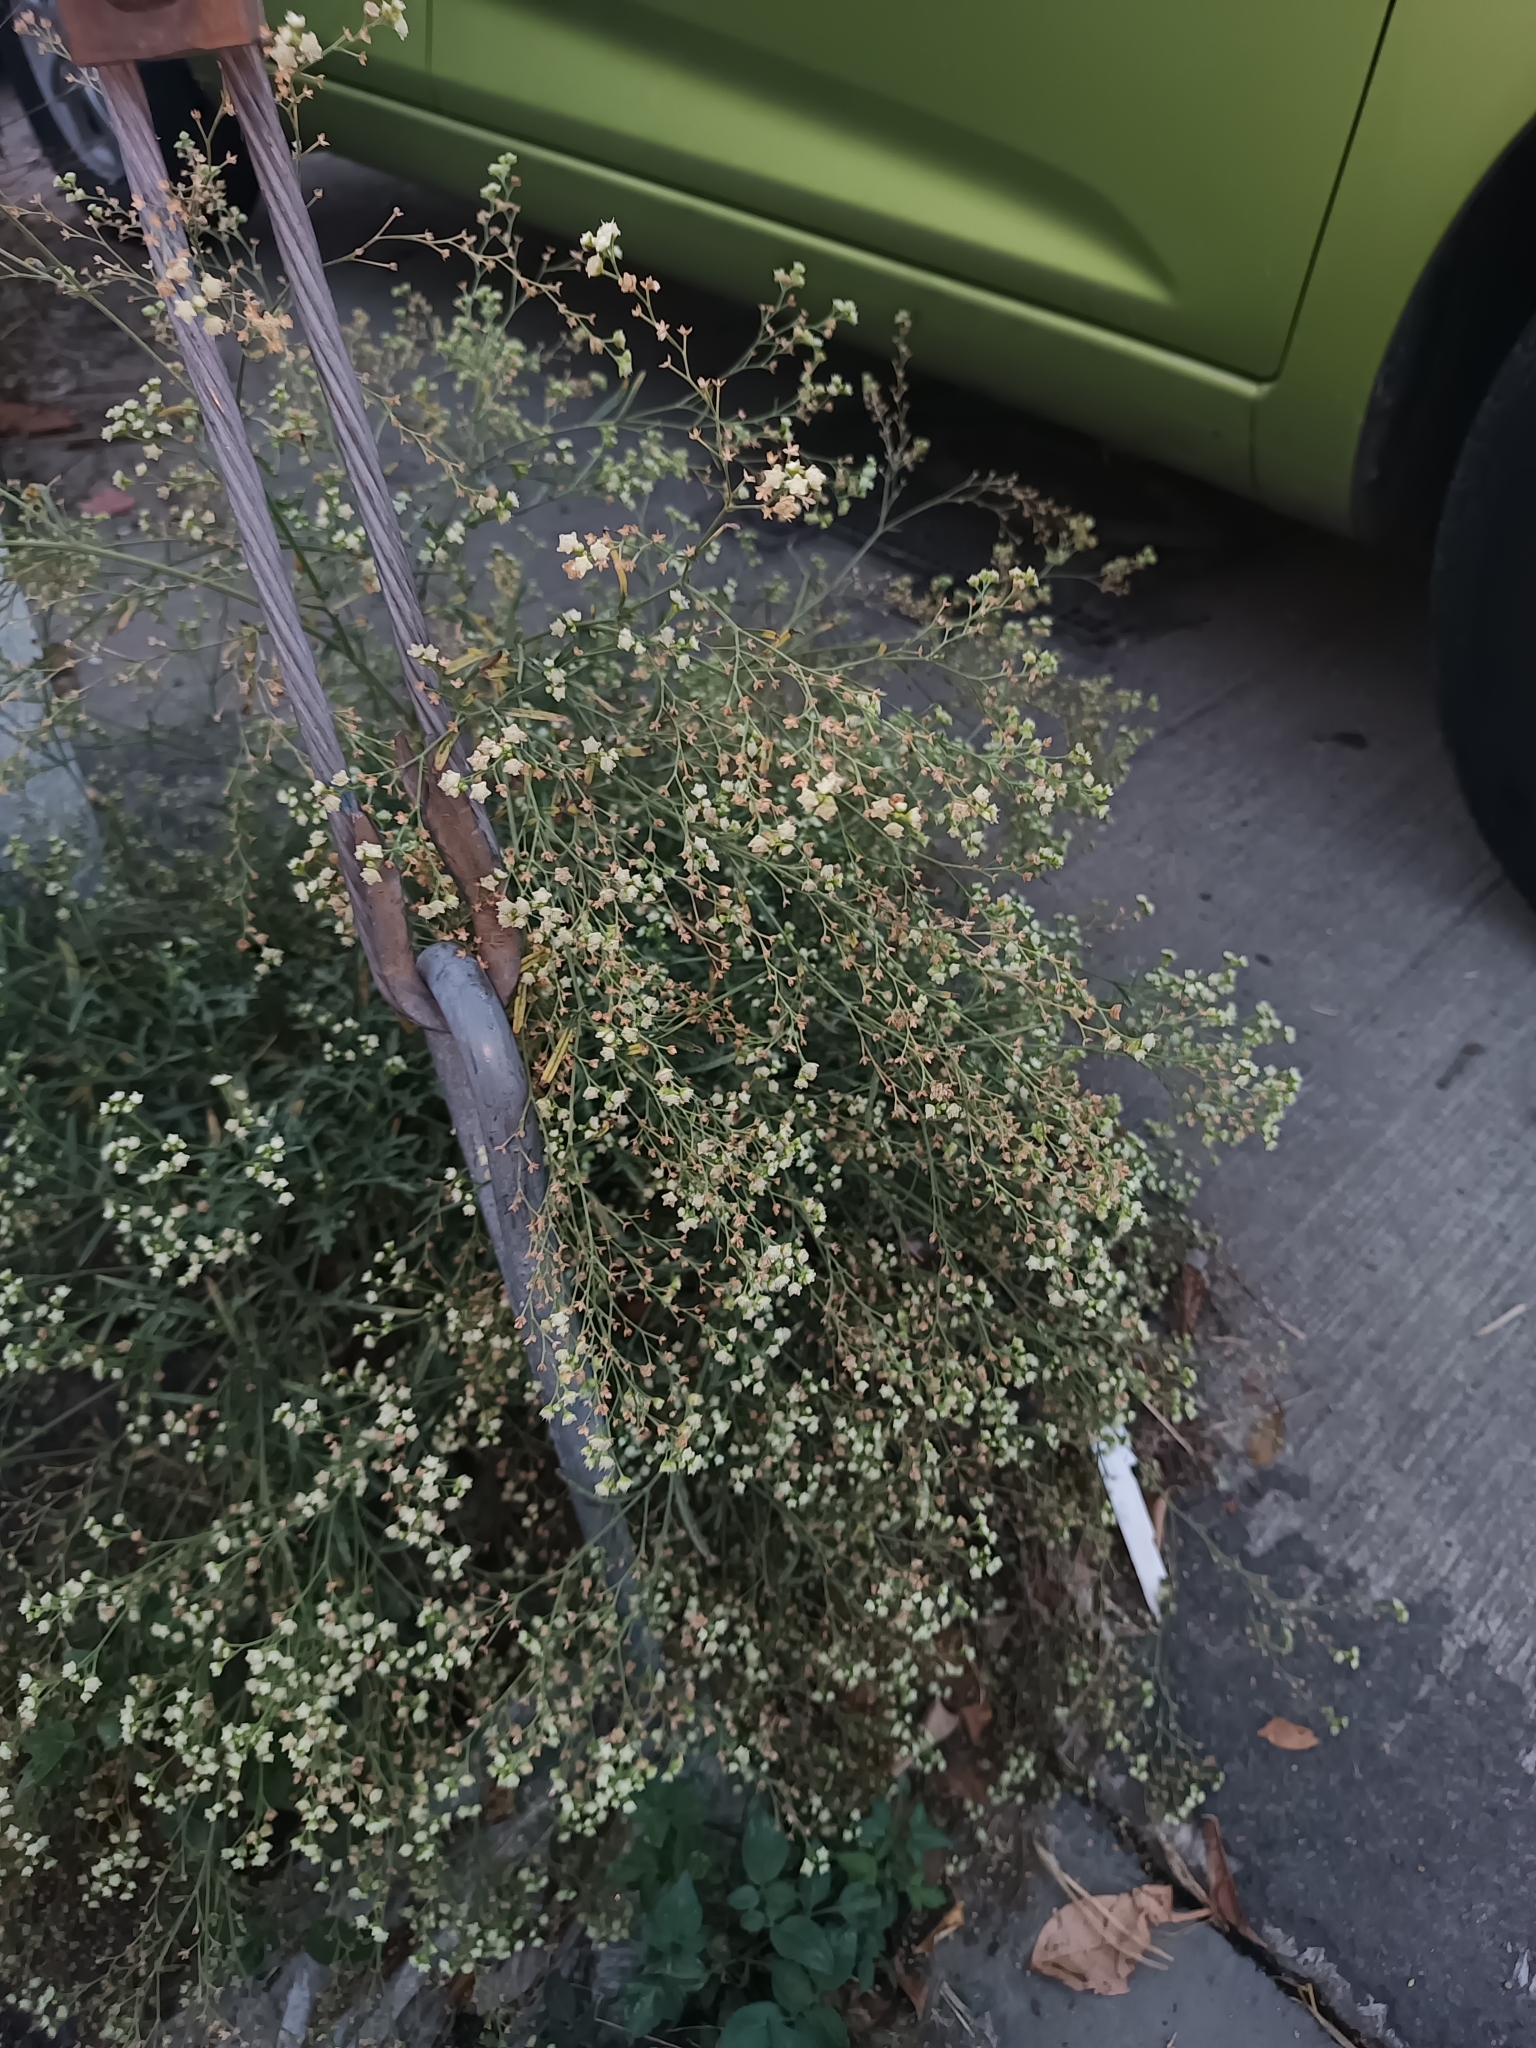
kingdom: Plantae
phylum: Tracheophyta
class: Magnoliopsida
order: Asterales
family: Asteraceae
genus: Parthenium
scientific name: Parthenium hysterophorus
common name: Santa maria feverfew
